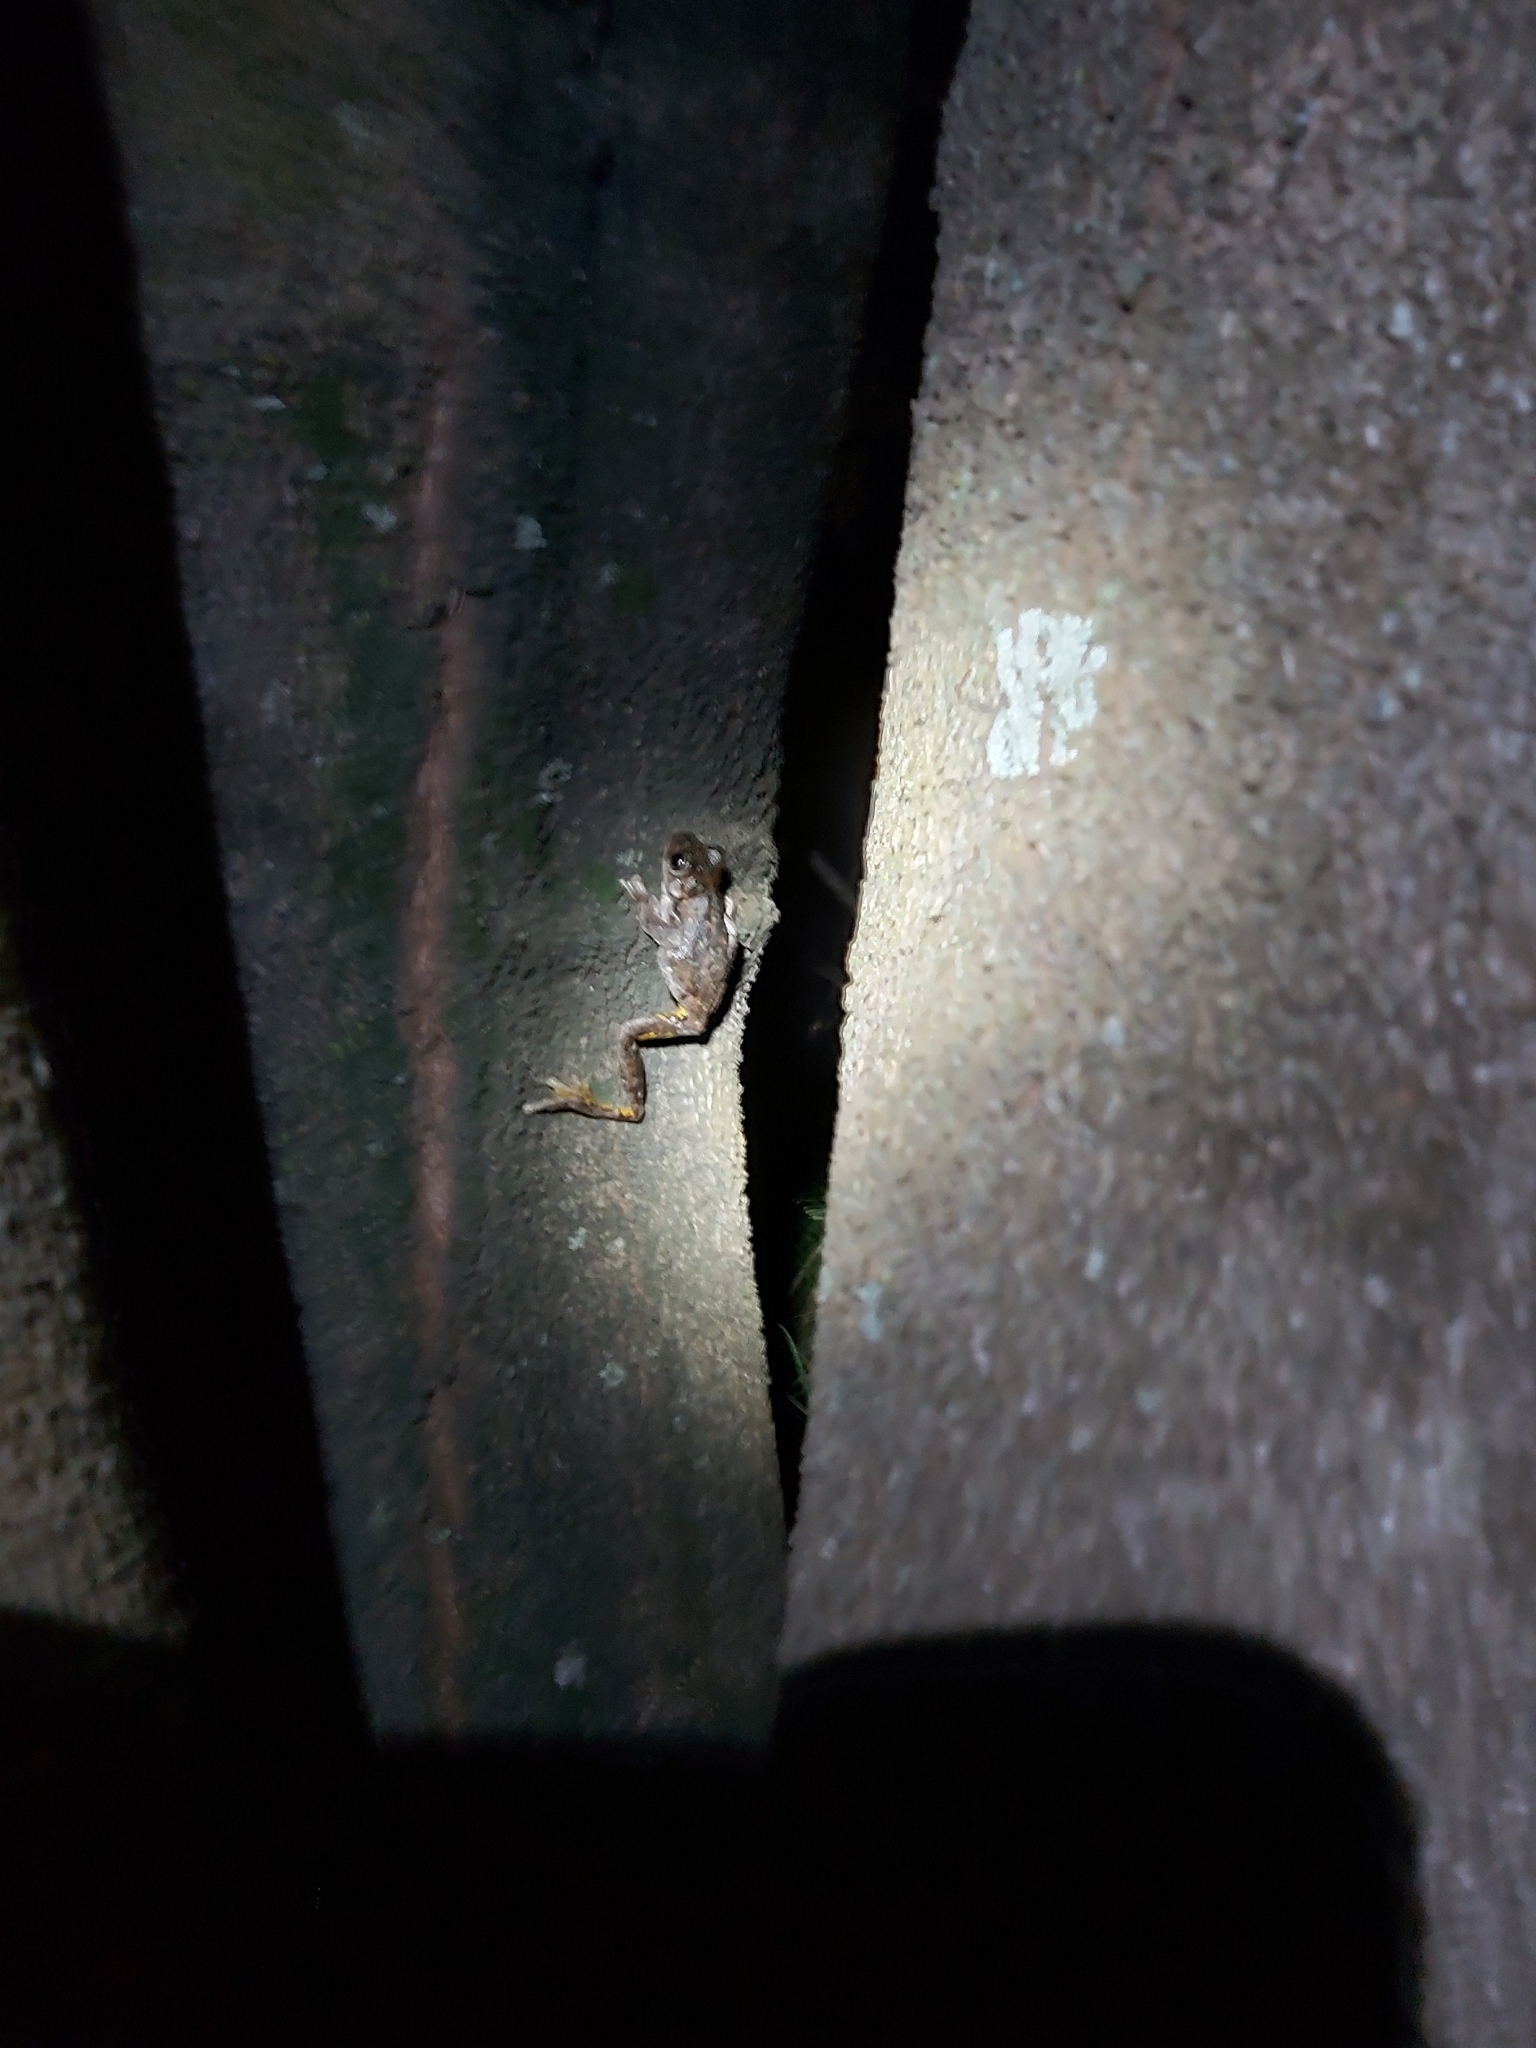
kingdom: Animalia
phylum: Chordata
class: Amphibia
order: Anura
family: Pelodryadidae
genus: Litoria
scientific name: Litoria peronii
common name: Emerald spotted treefrog
